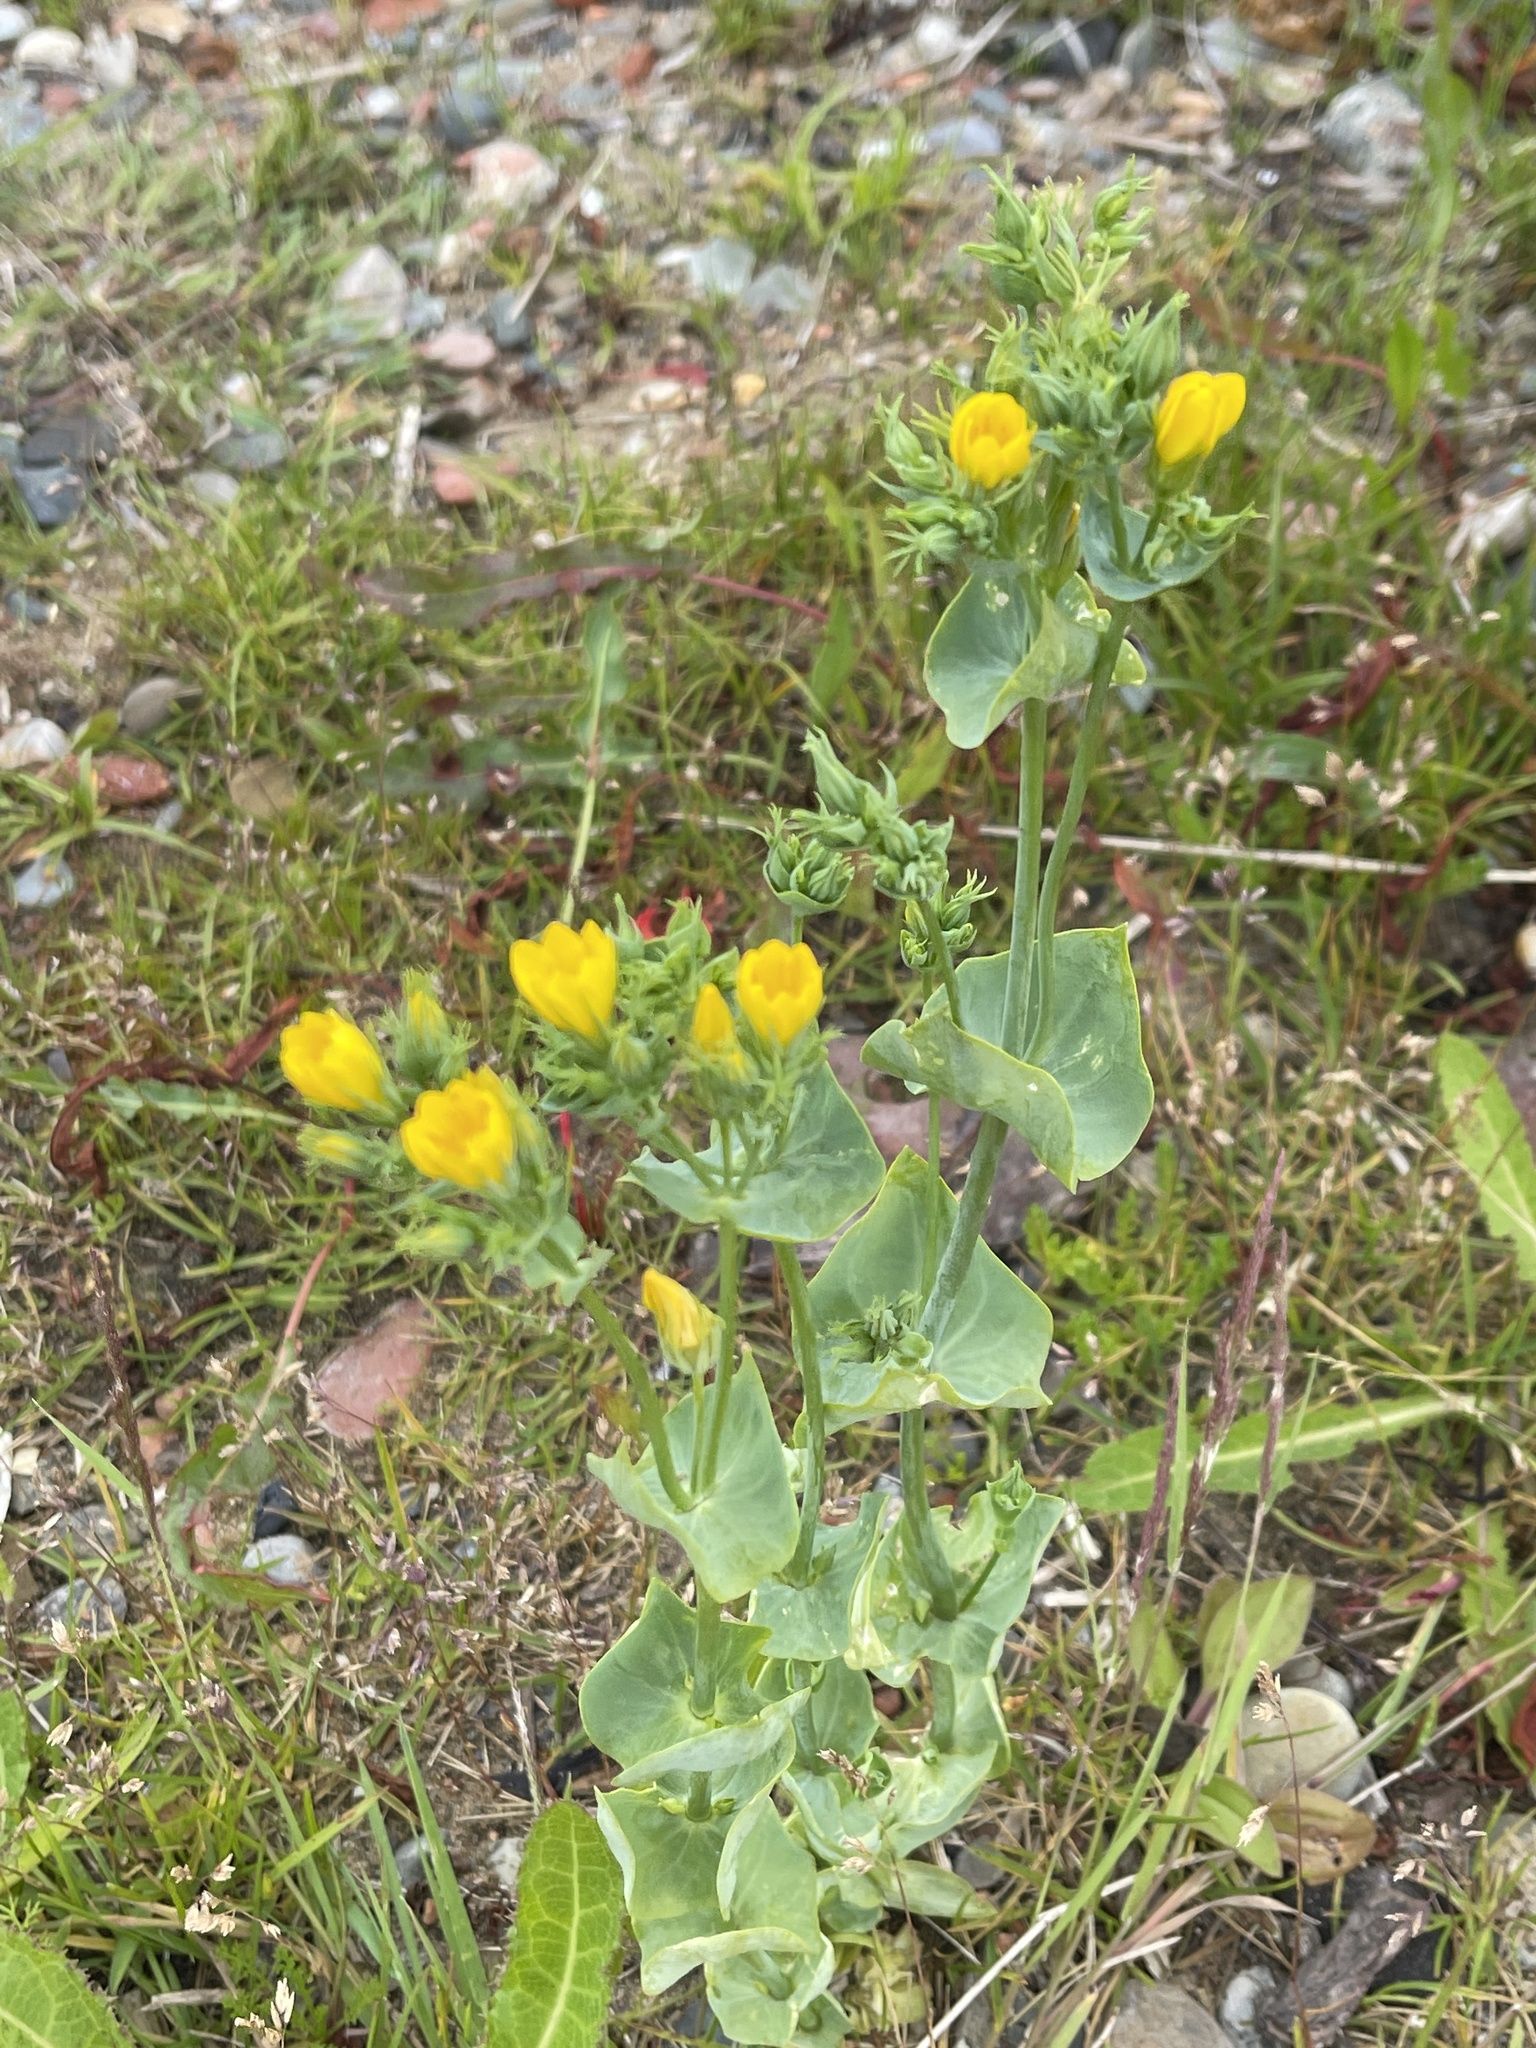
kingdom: Plantae
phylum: Tracheophyta
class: Magnoliopsida
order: Gentianales
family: Gentianaceae
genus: Blackstonia
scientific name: Blackstonia perfoliata
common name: Yellow-wort
